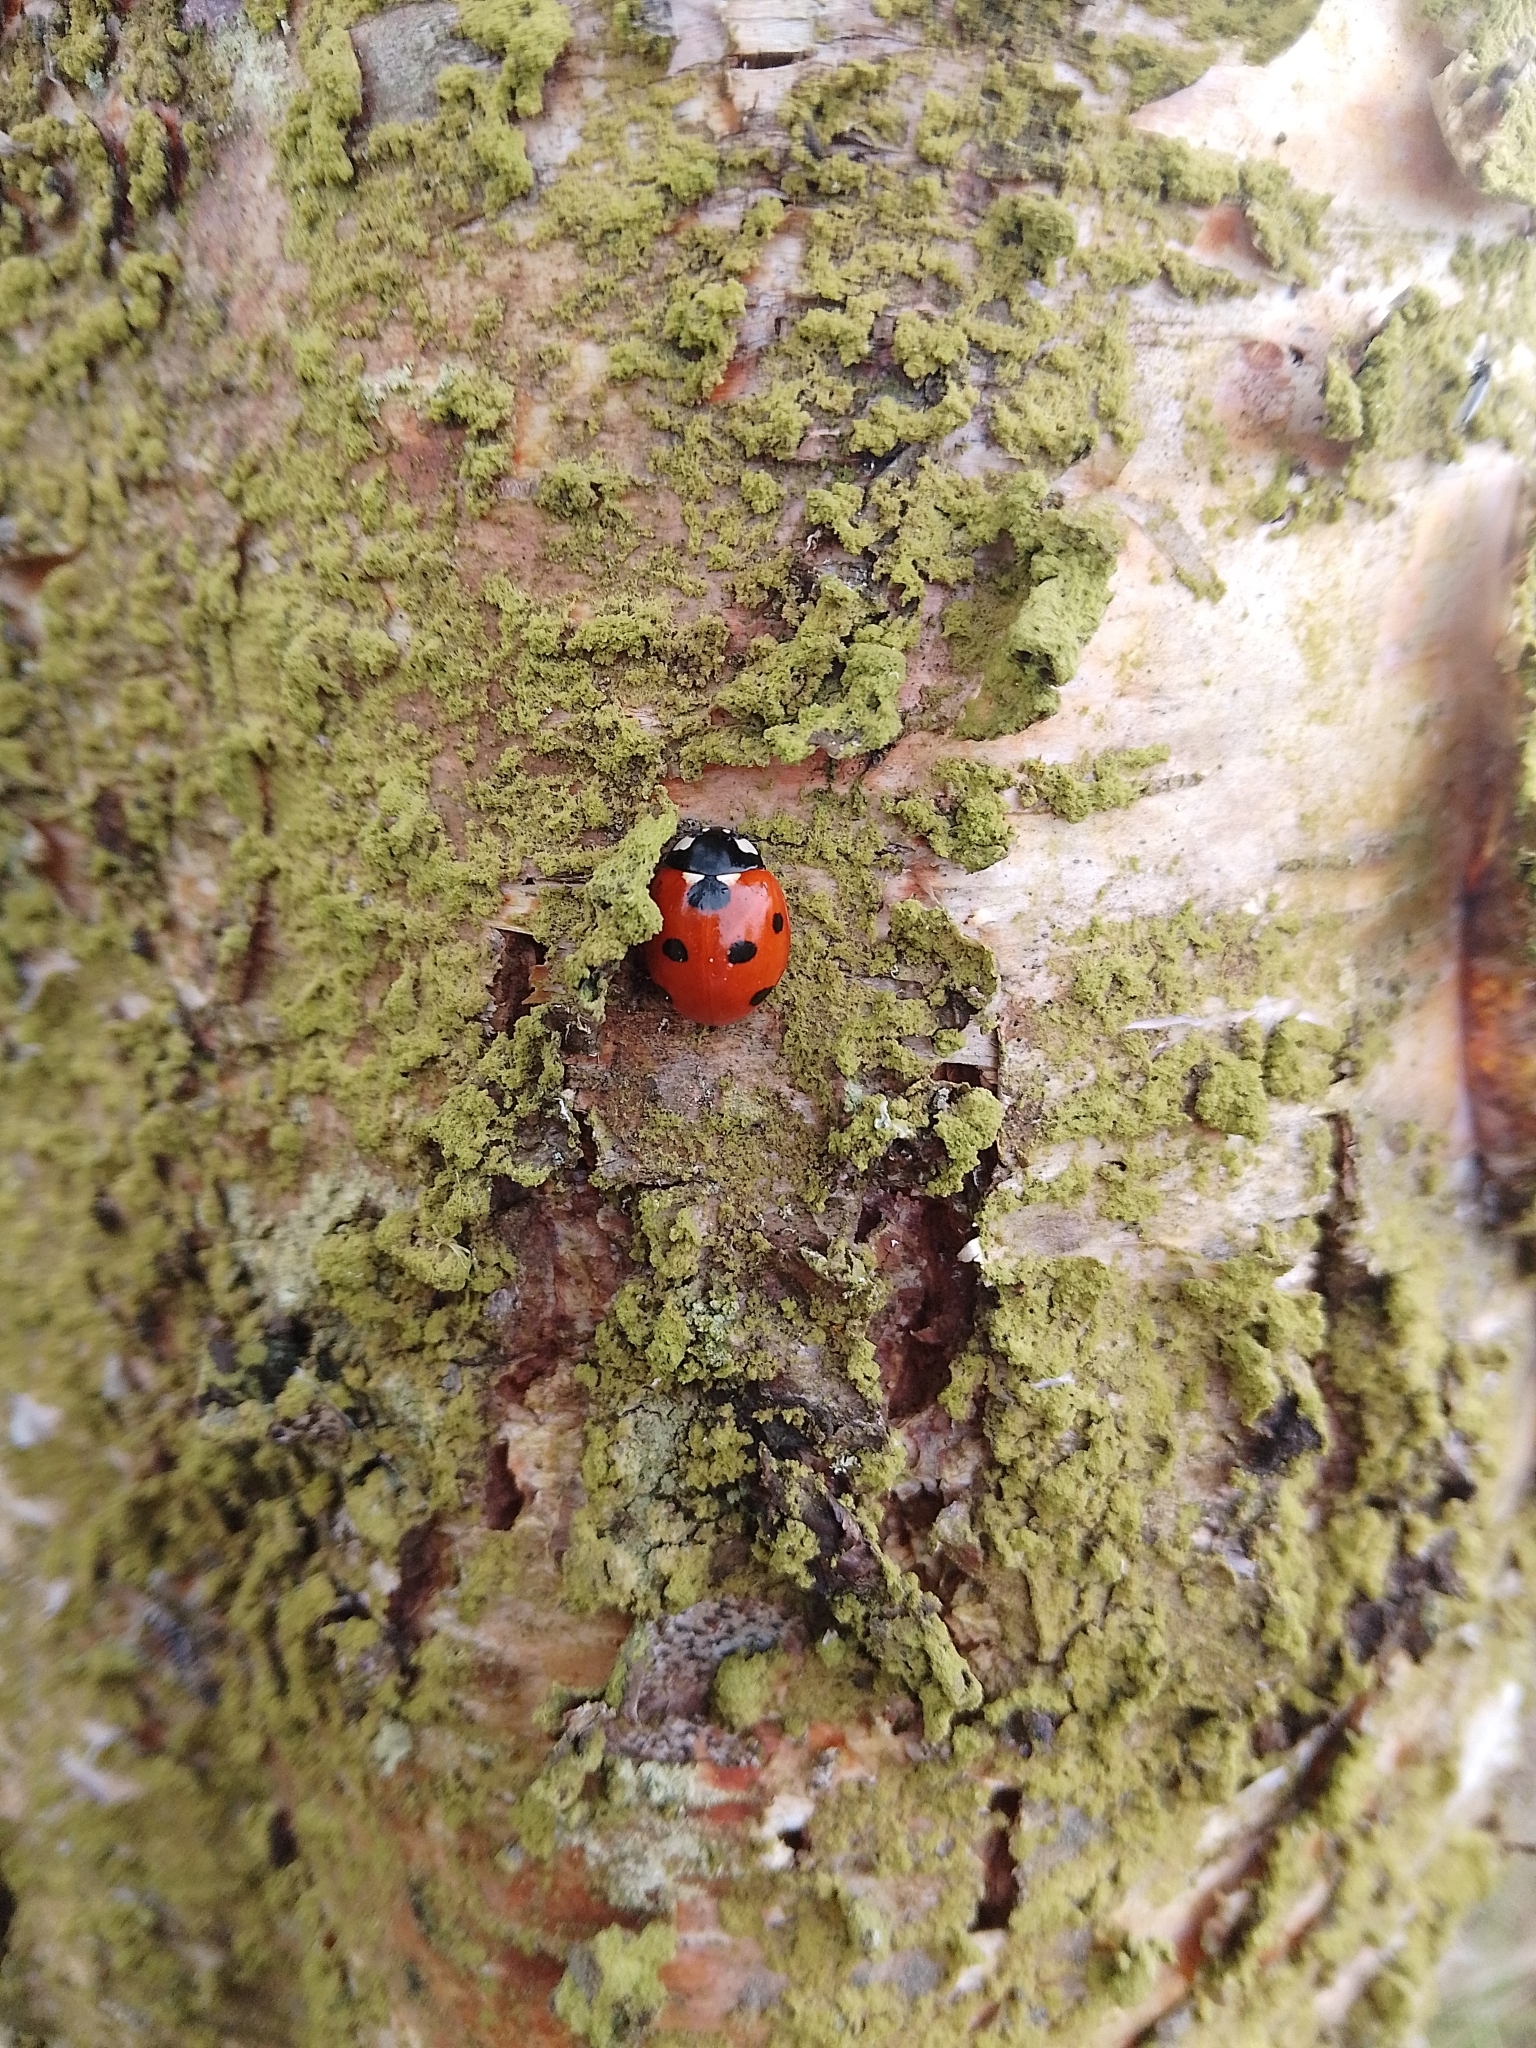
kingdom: Animalia
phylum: Arthropoda
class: Insecta
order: Coleoptera
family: Coccinellidae
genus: Coccinella
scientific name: Coccinella septempunctata
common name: Sevenspotted lady beetle
